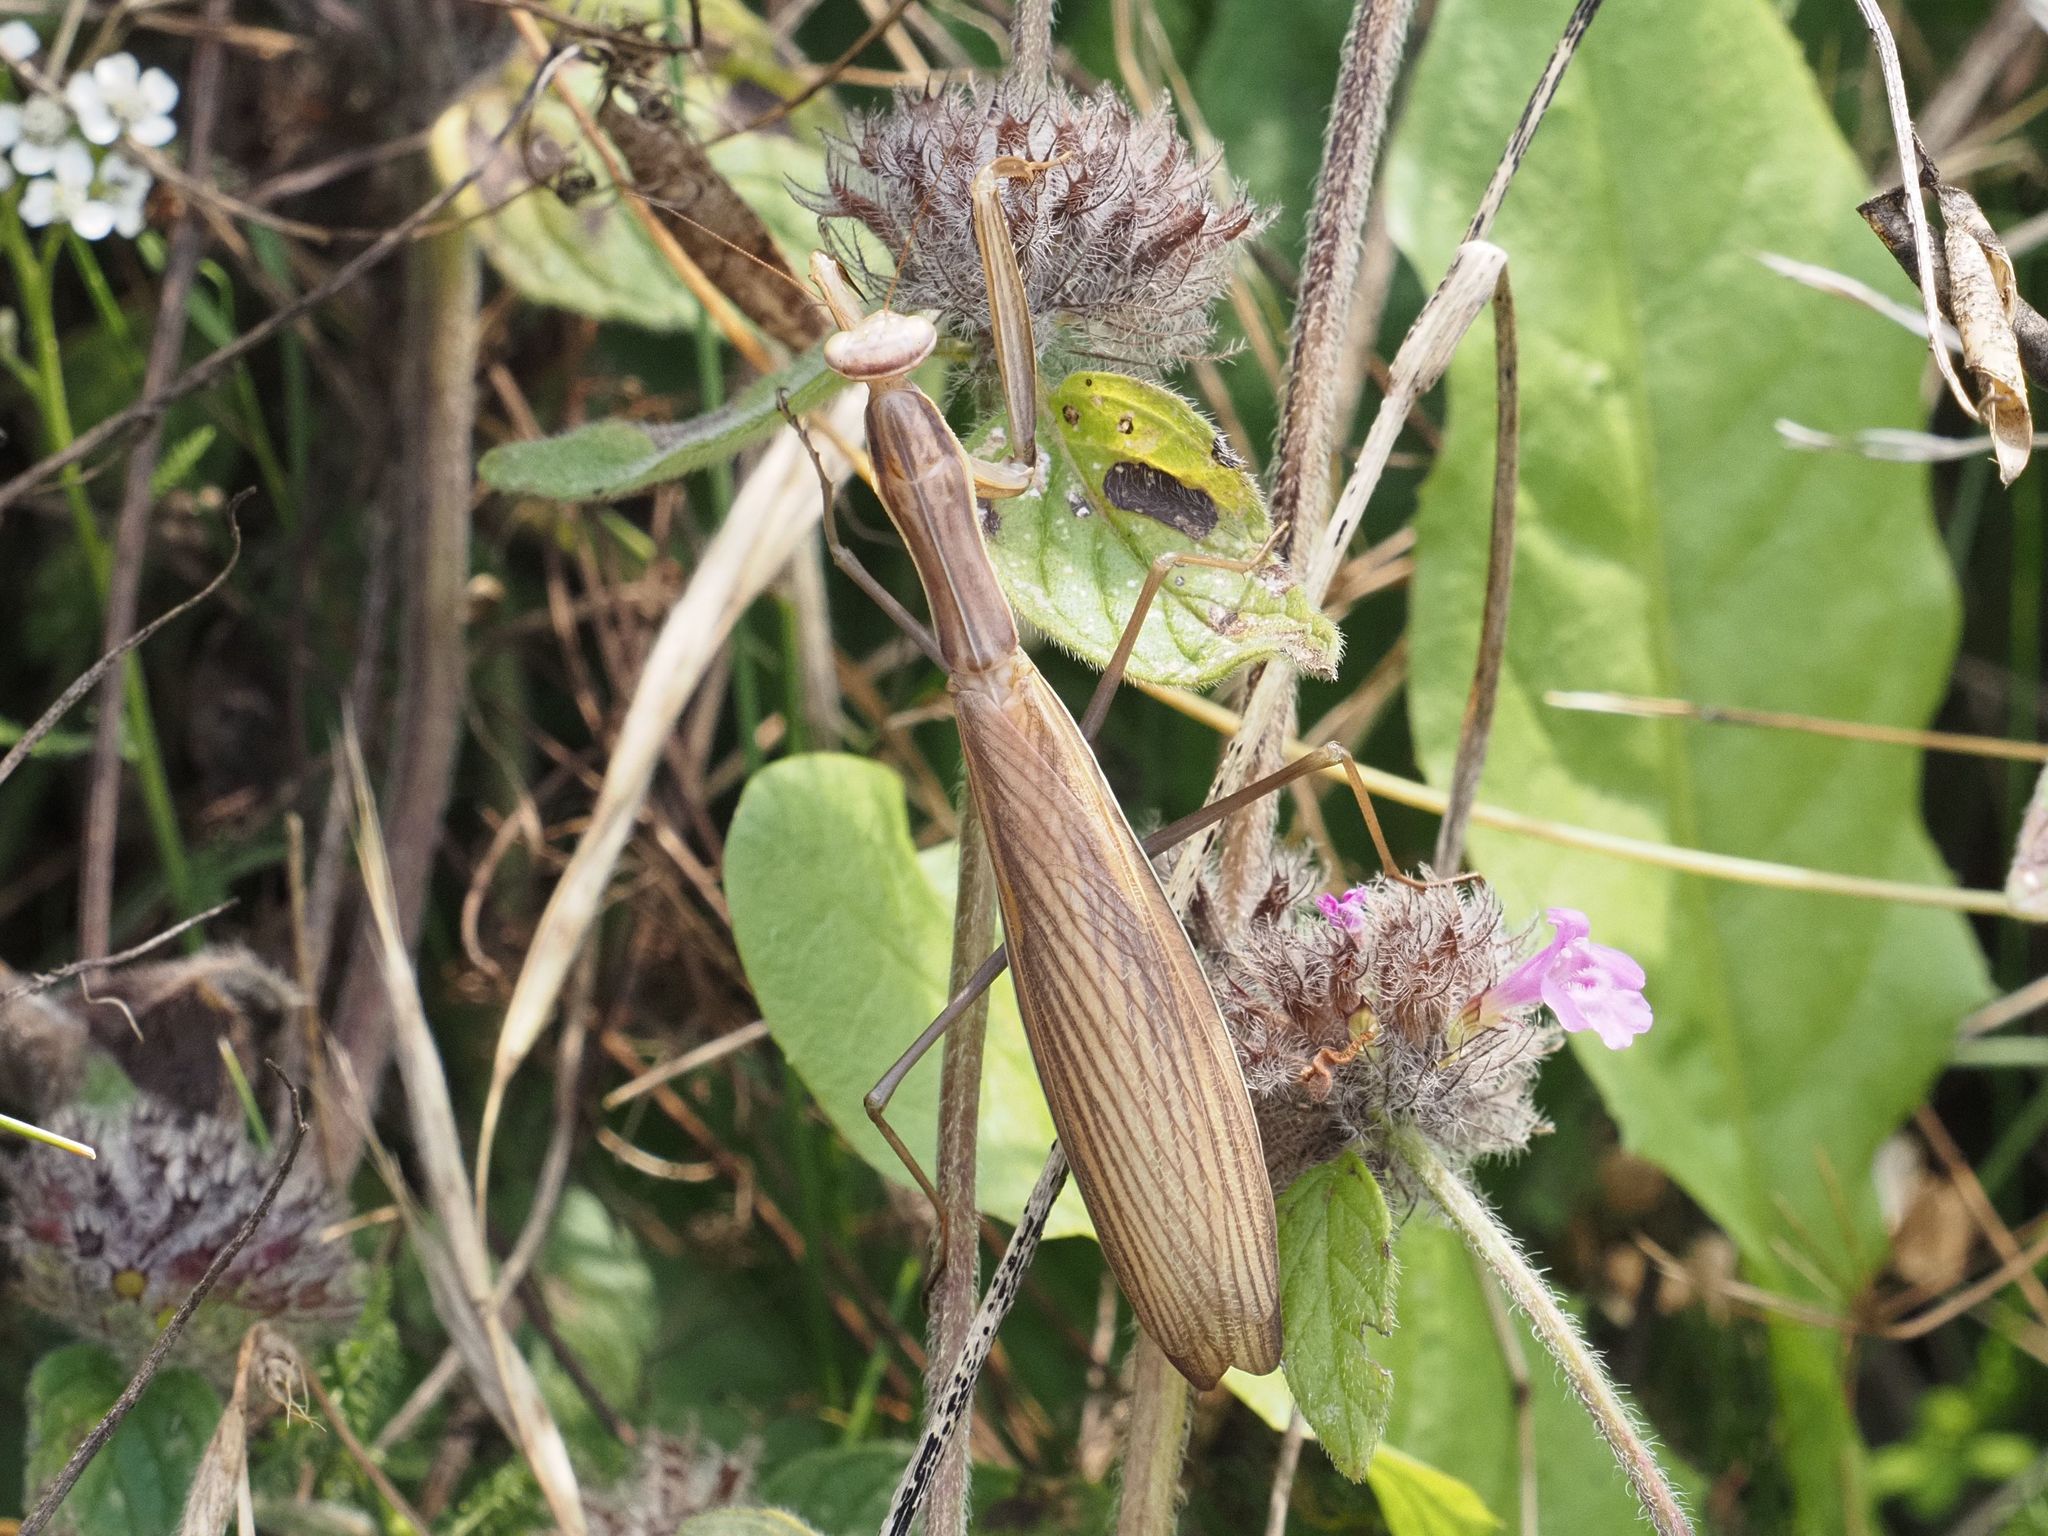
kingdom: Animalia
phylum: Arthropoda
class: Insecta
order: Mantodea
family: Mantidae
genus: Mantis
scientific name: Mantis religiosa
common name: Praying mantis
